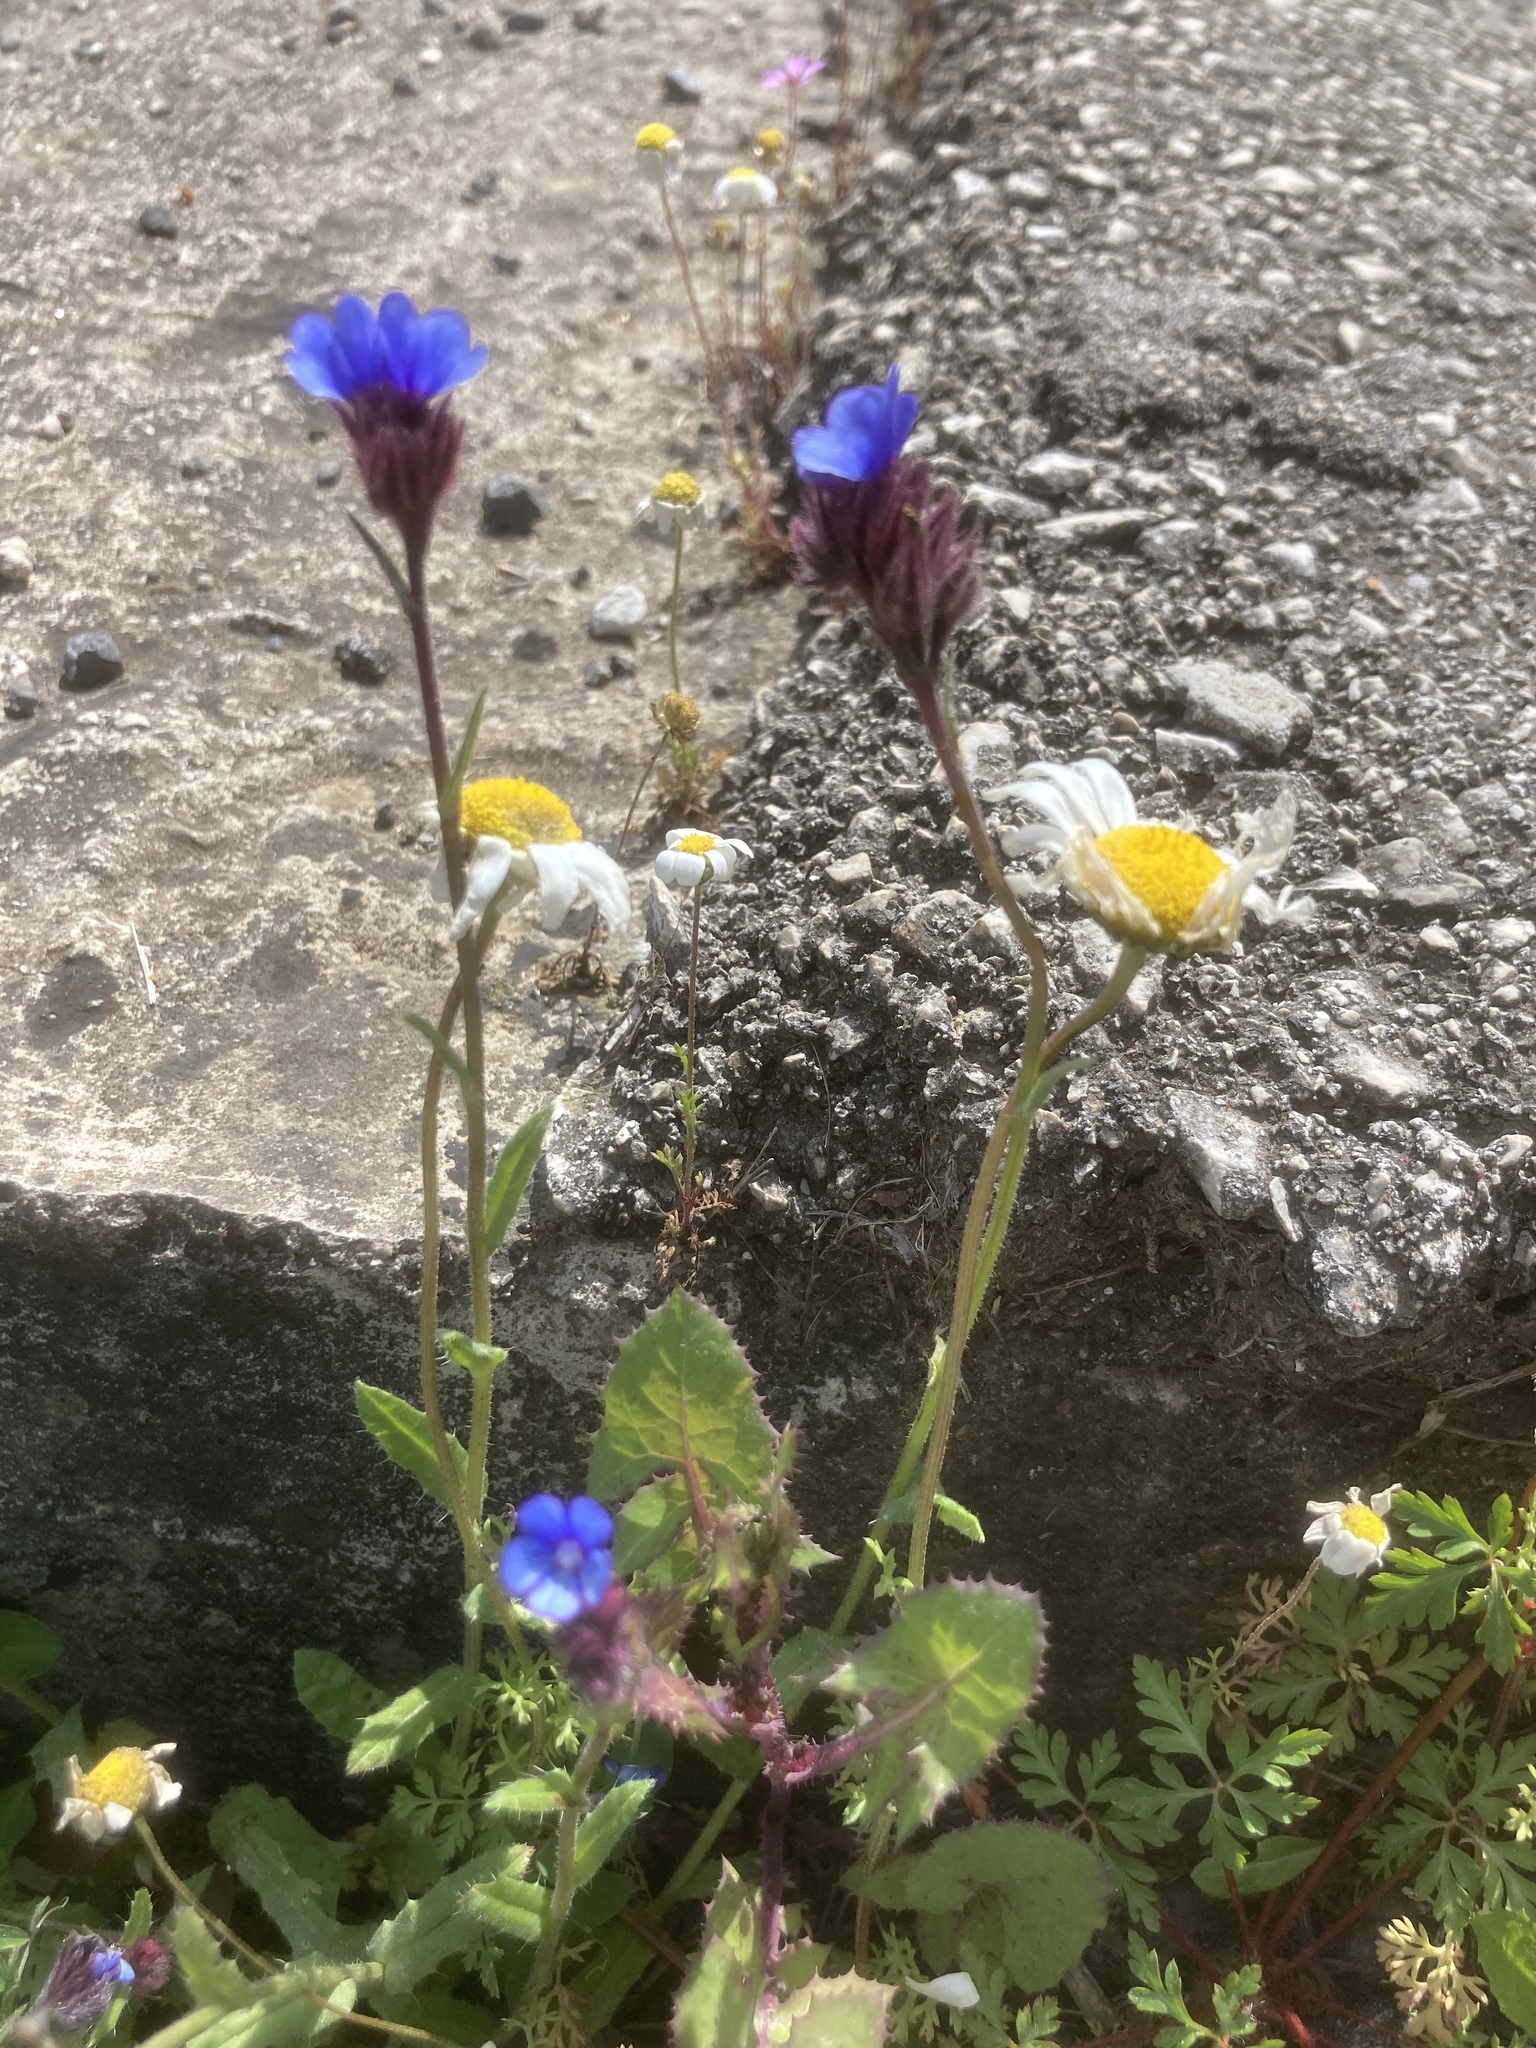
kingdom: Plantae
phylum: Tracheophyta
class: Magnoliopsida
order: Boraginales
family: Boraginaceae
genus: Anchusella
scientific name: Anchusella cretica
